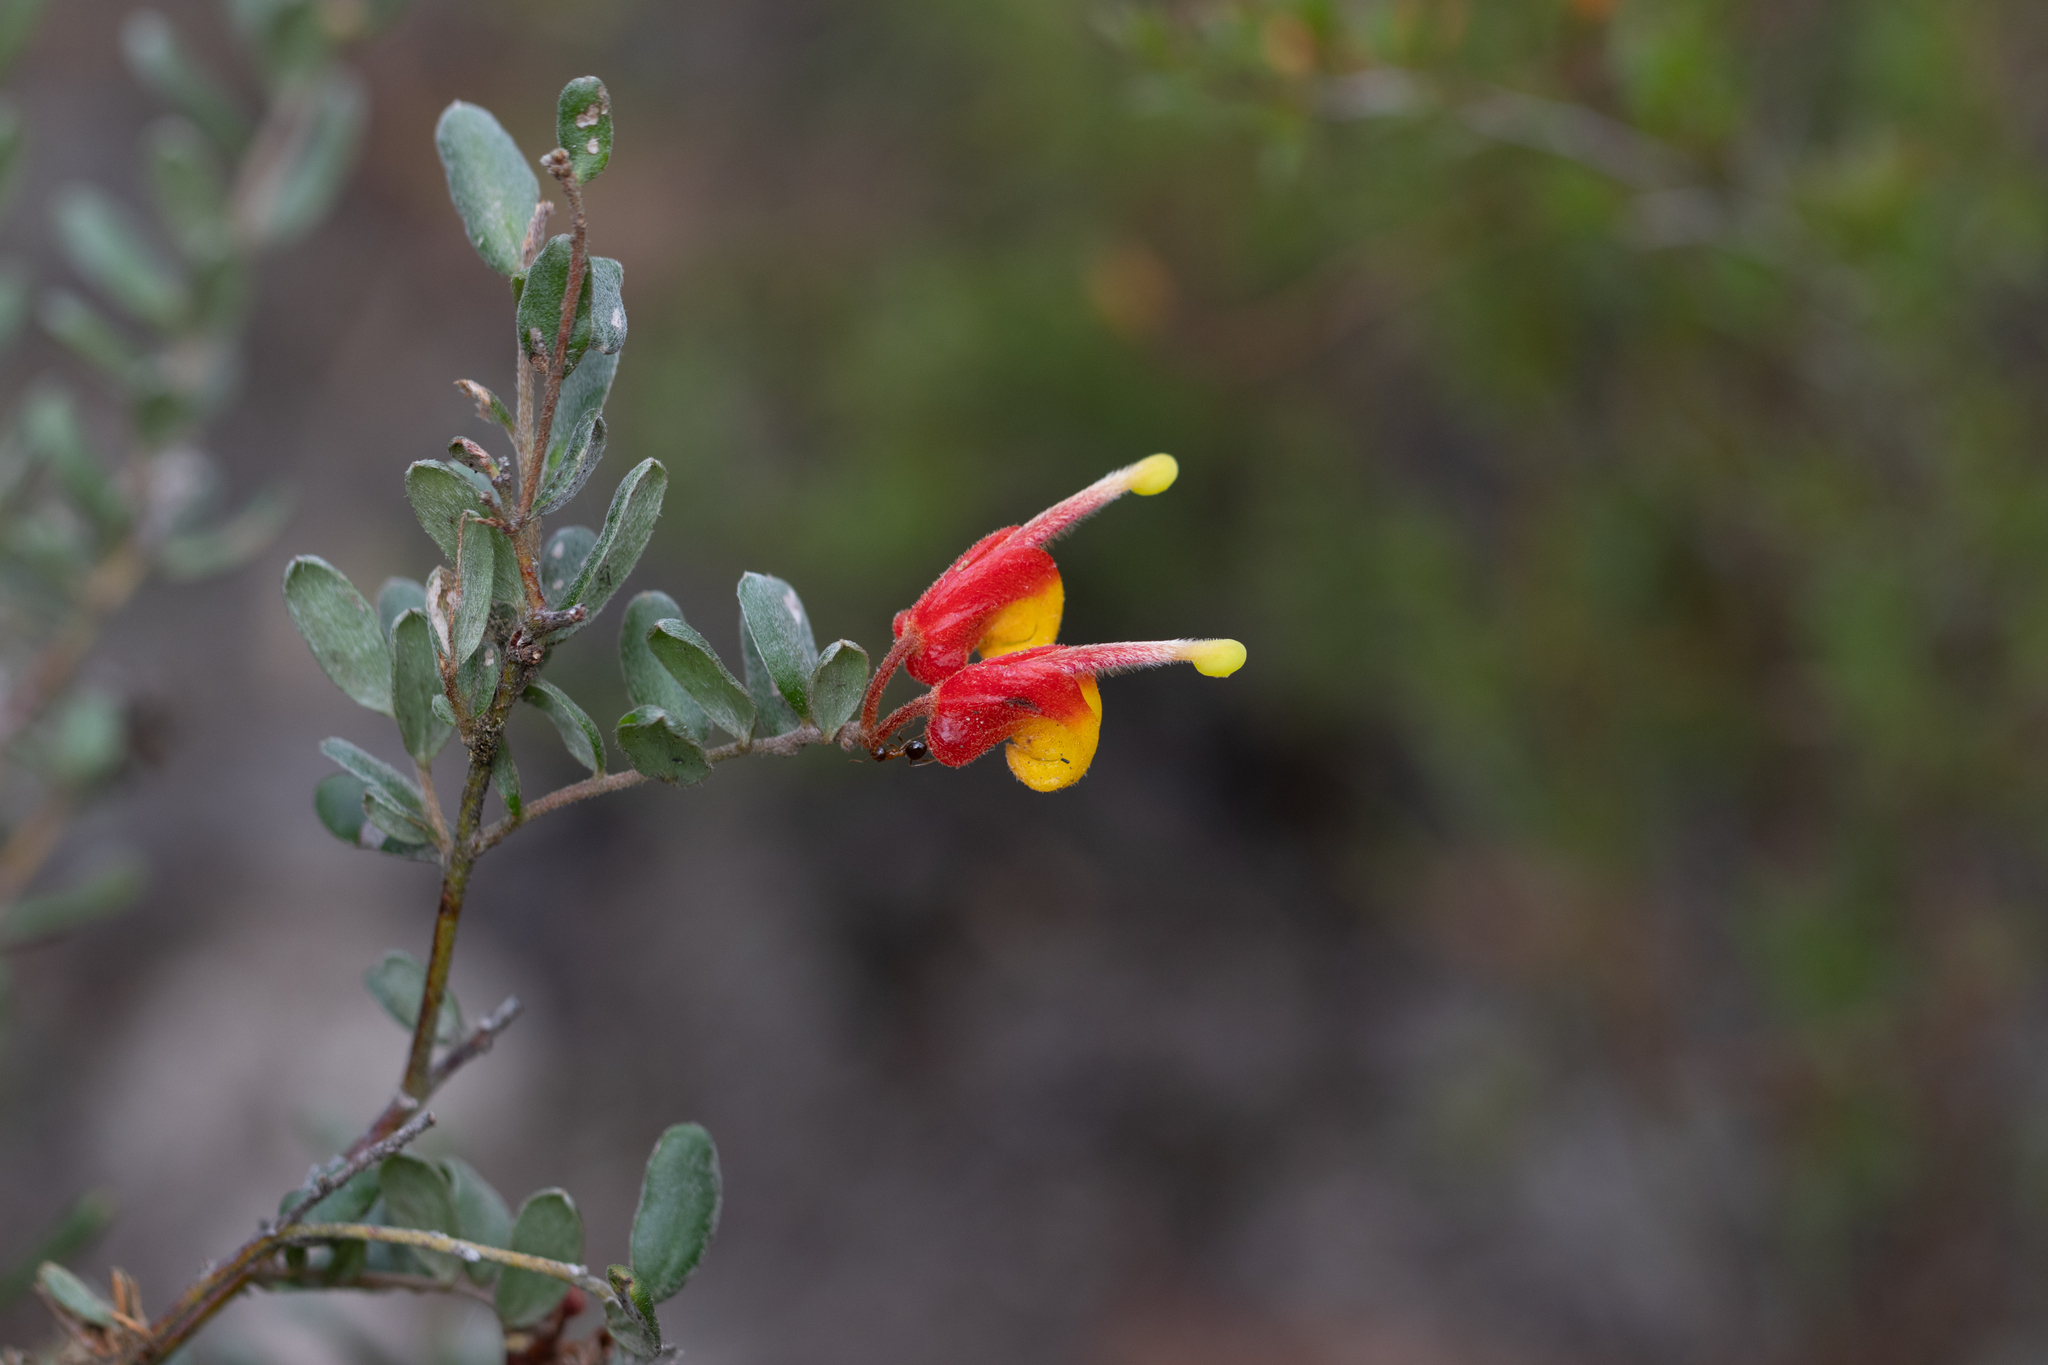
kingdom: Plantae
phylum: Tracheophyta
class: Magnoliopsida
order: Proteales
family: Proteaceae
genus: Grevillea
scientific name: Grevillea alpina
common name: Catclaws grevillea
